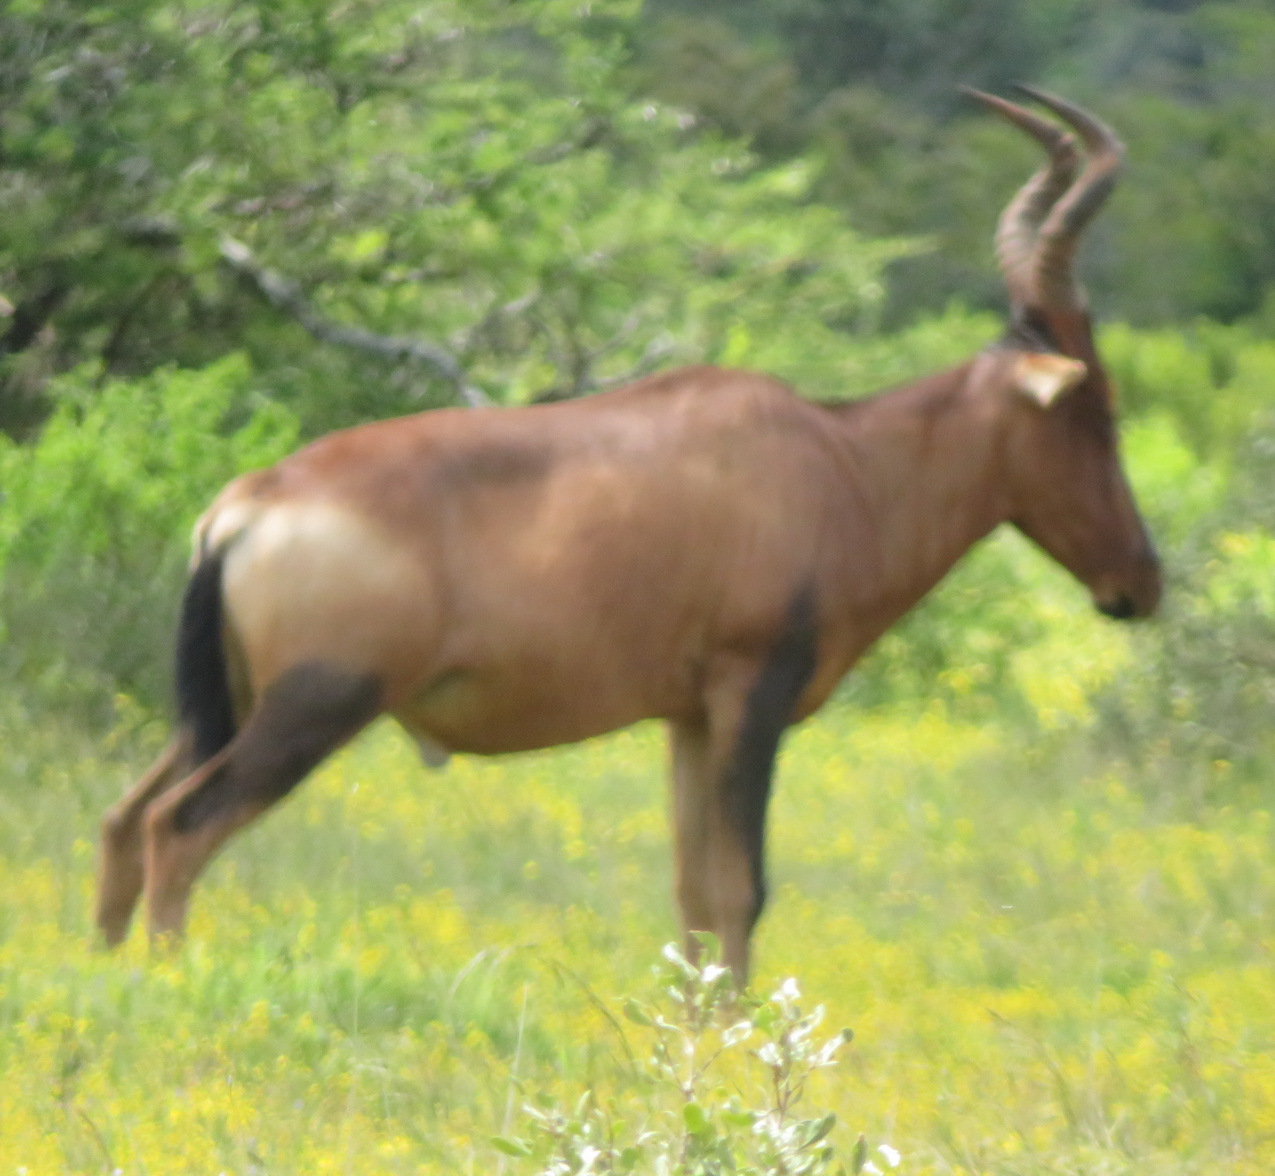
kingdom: Animalia
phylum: Chordata
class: Mammalia
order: Artiodactyla
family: Bovidae
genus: Alcelaphus
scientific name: Alcelaphus caama
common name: Red hartebeest
